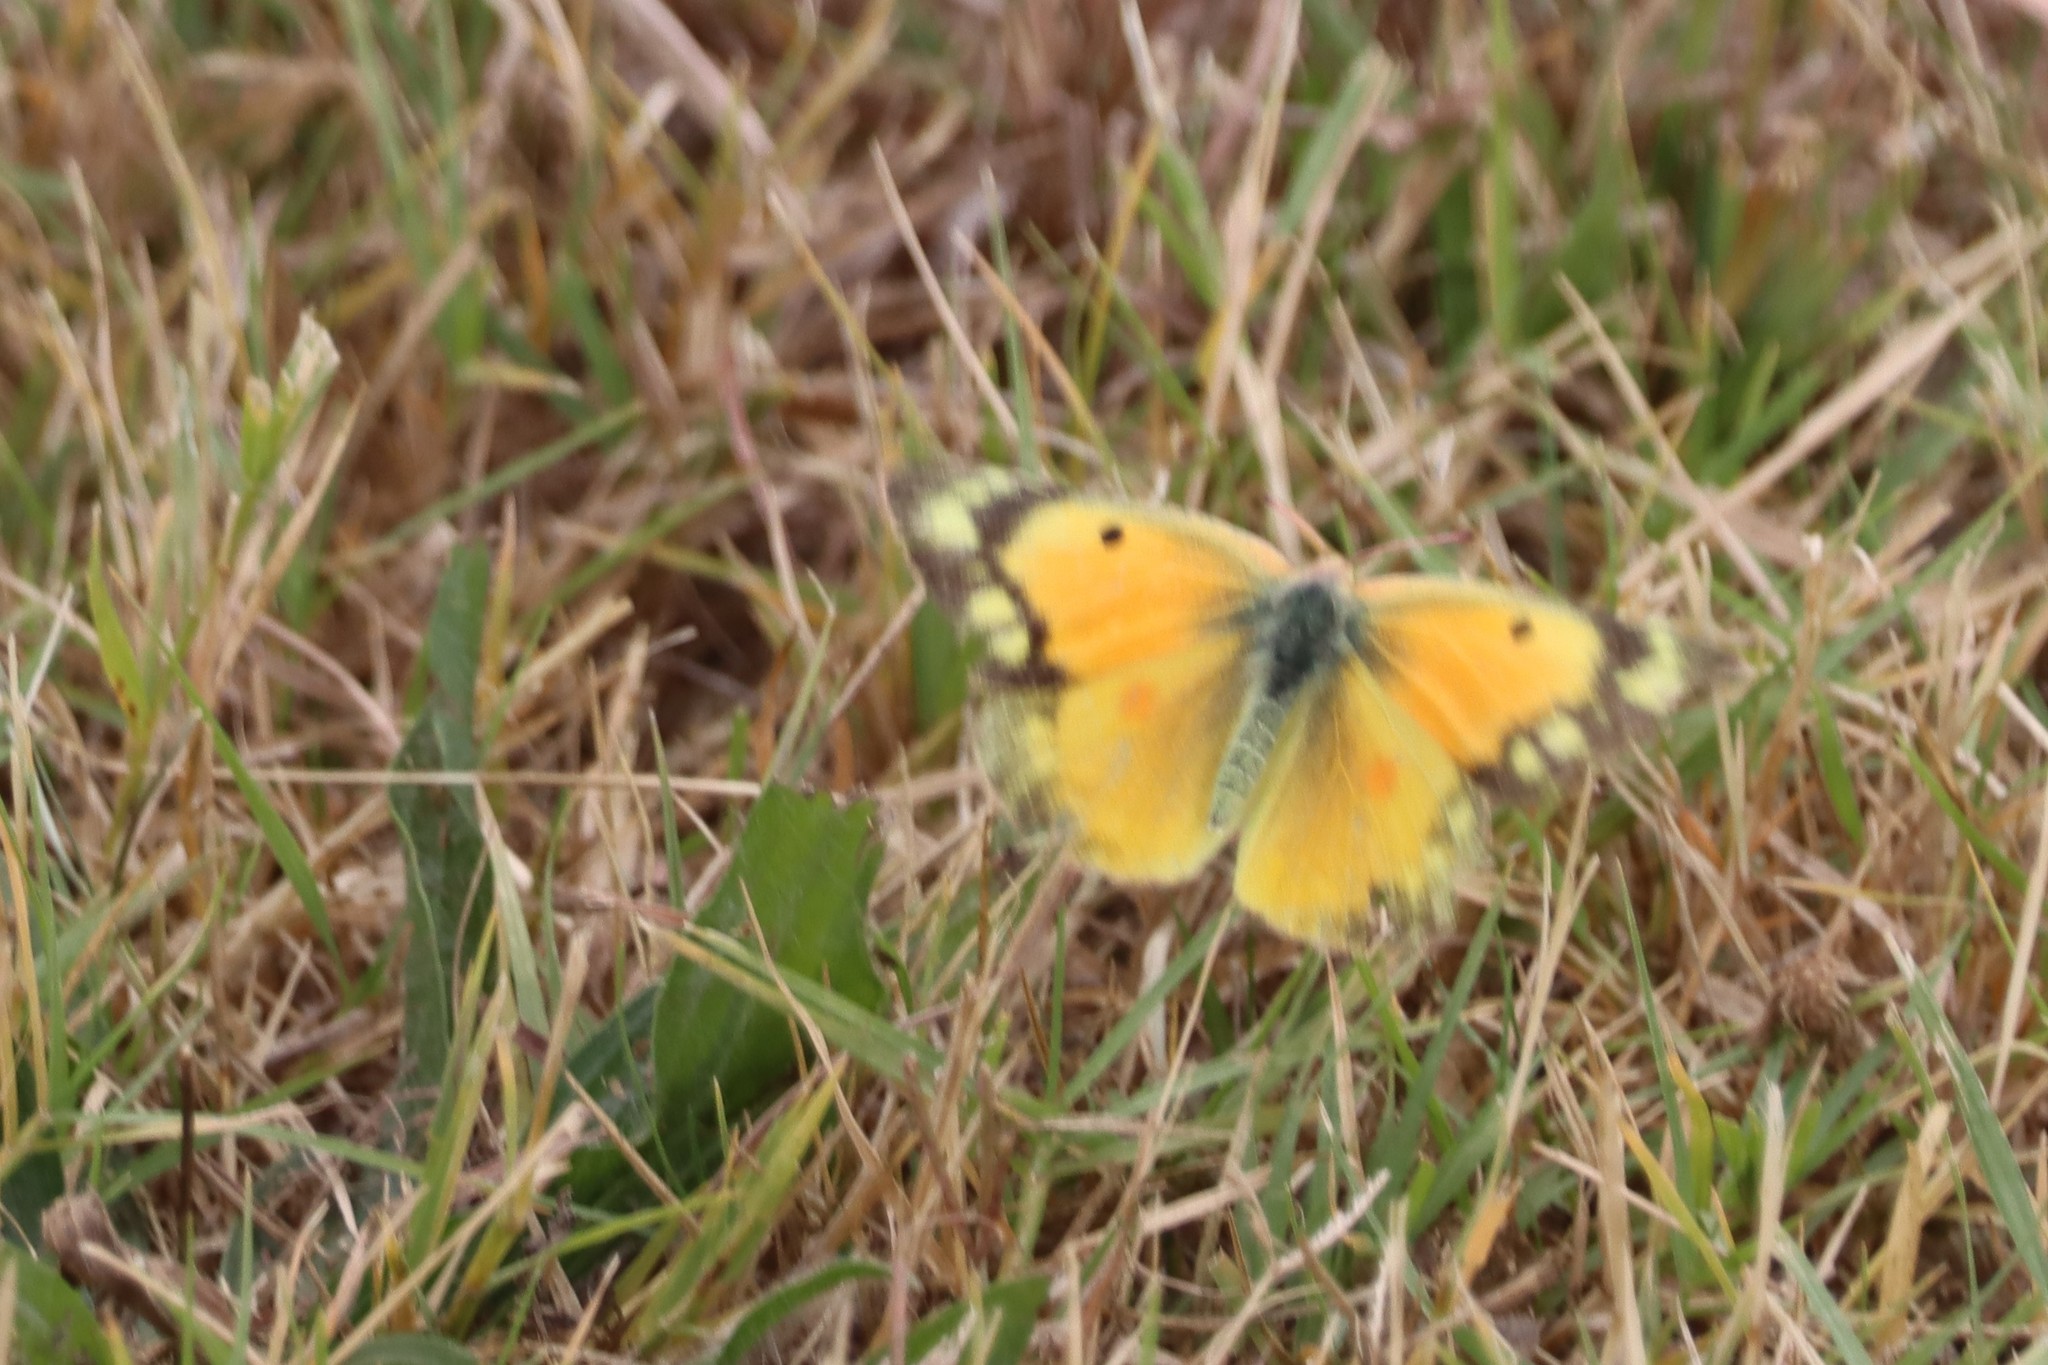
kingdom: Animalia
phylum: Arthropoda
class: Insecta
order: Lepidoptera
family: Pieridae
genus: Colias
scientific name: Colias eurytheme
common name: Alfalfa butterfly
